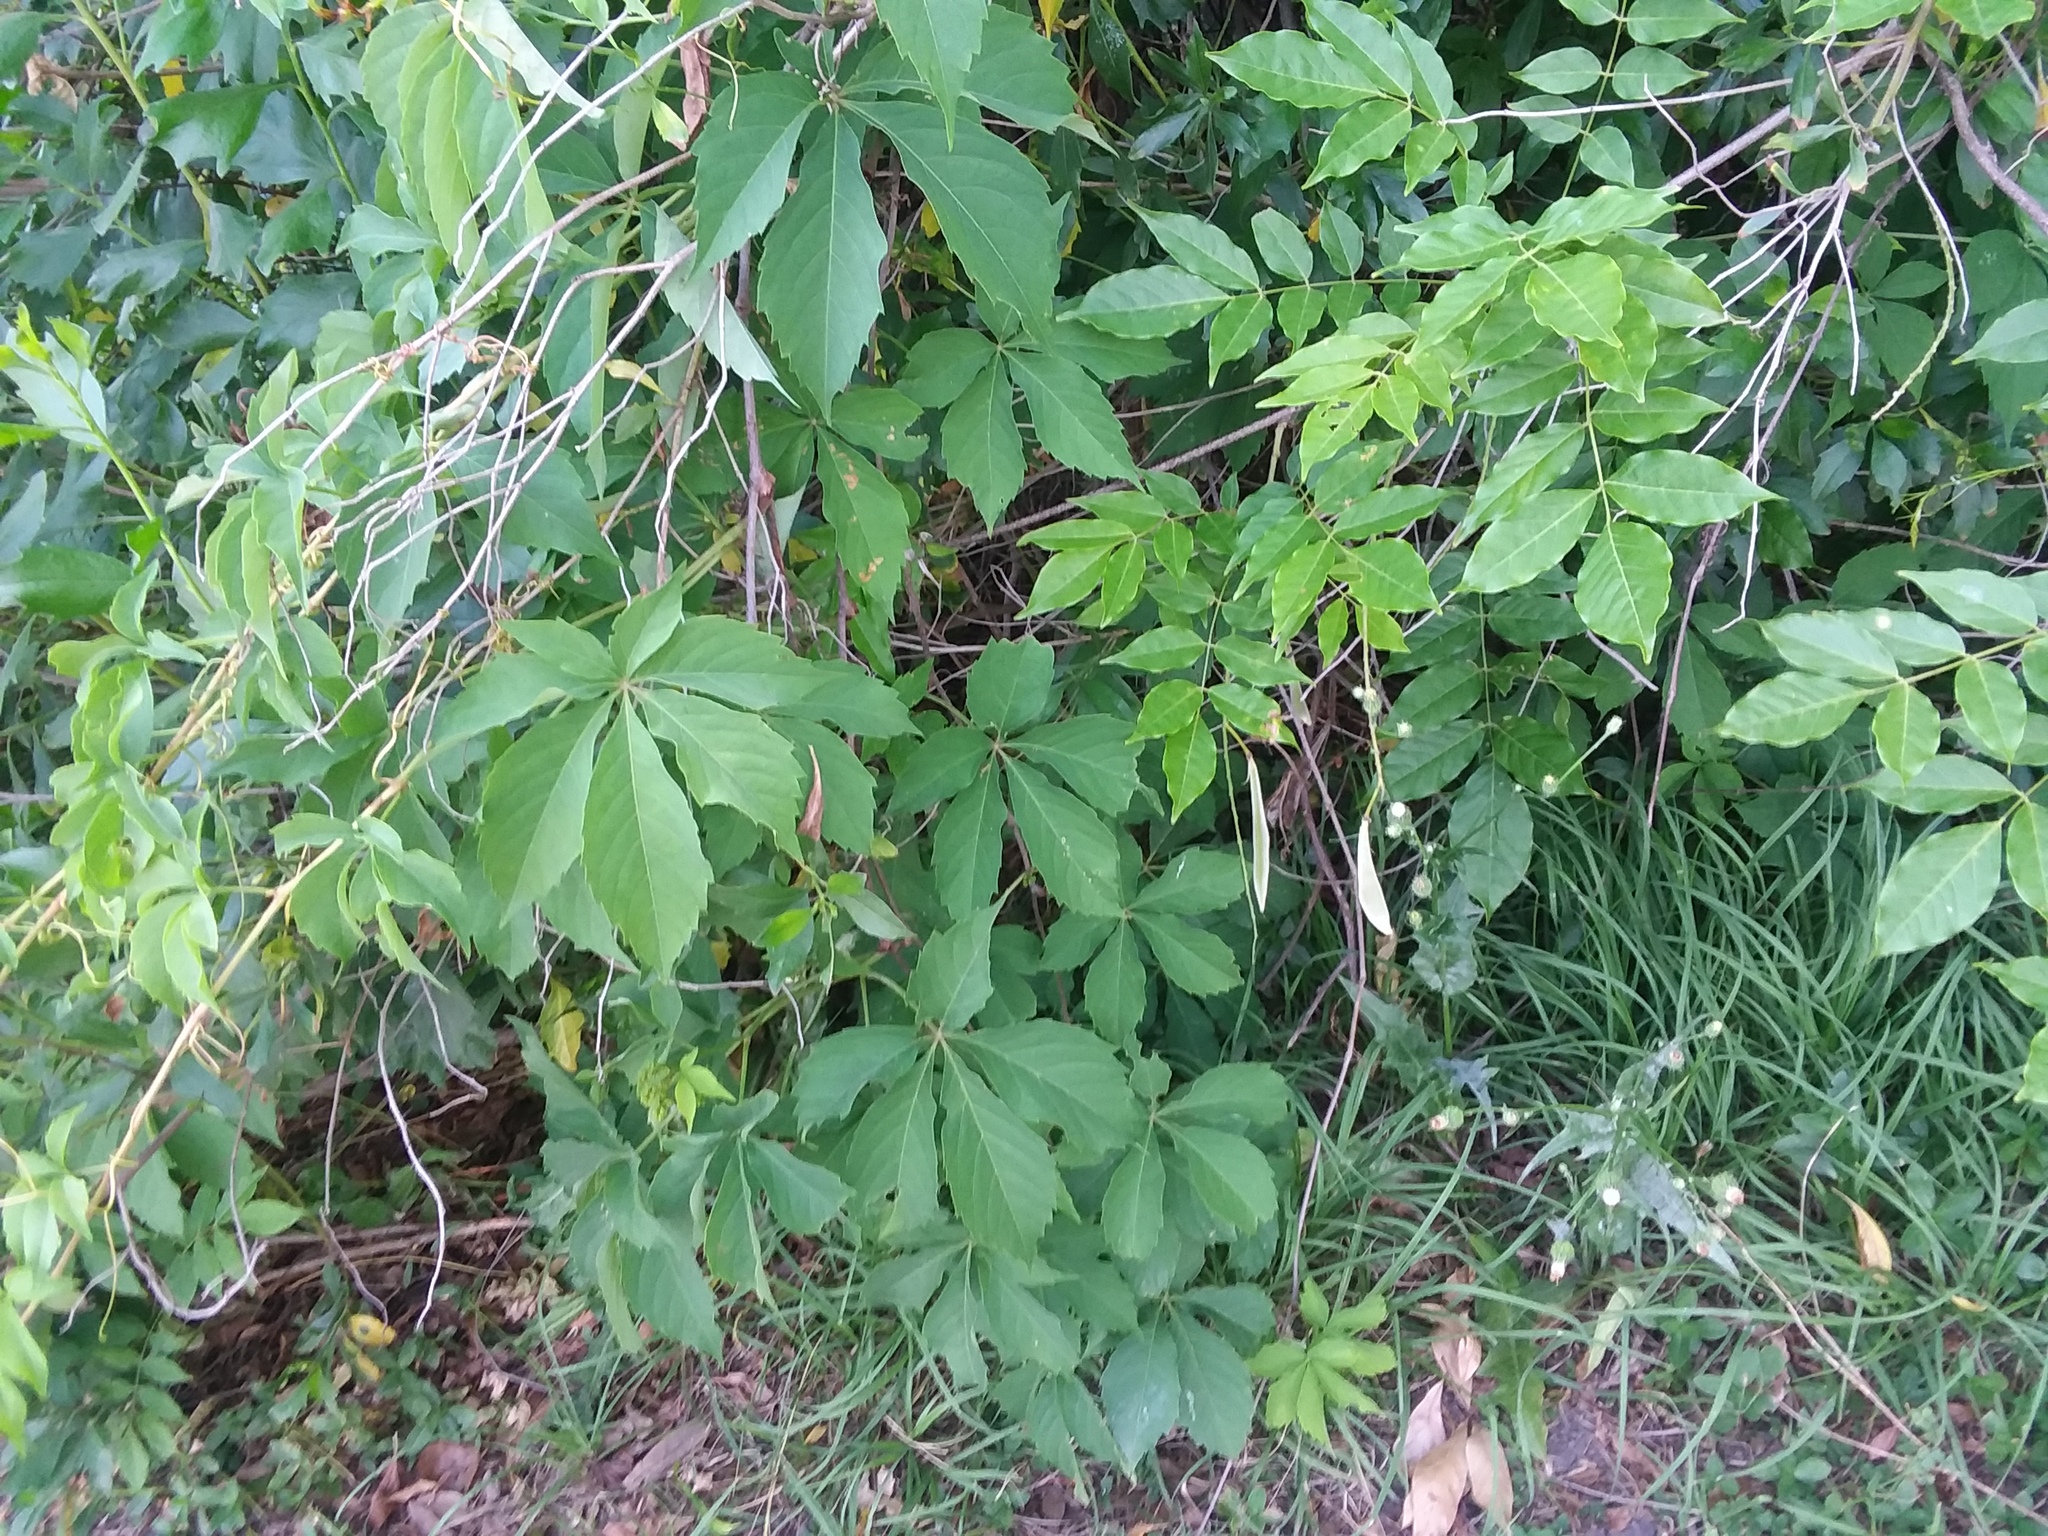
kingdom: Plantae
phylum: Tracheophyta
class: Magnoliopsida
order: Vitales
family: Vitaceae
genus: Parthenocissus
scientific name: Parthenocissus quinquefolia
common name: Virginia-creeper
